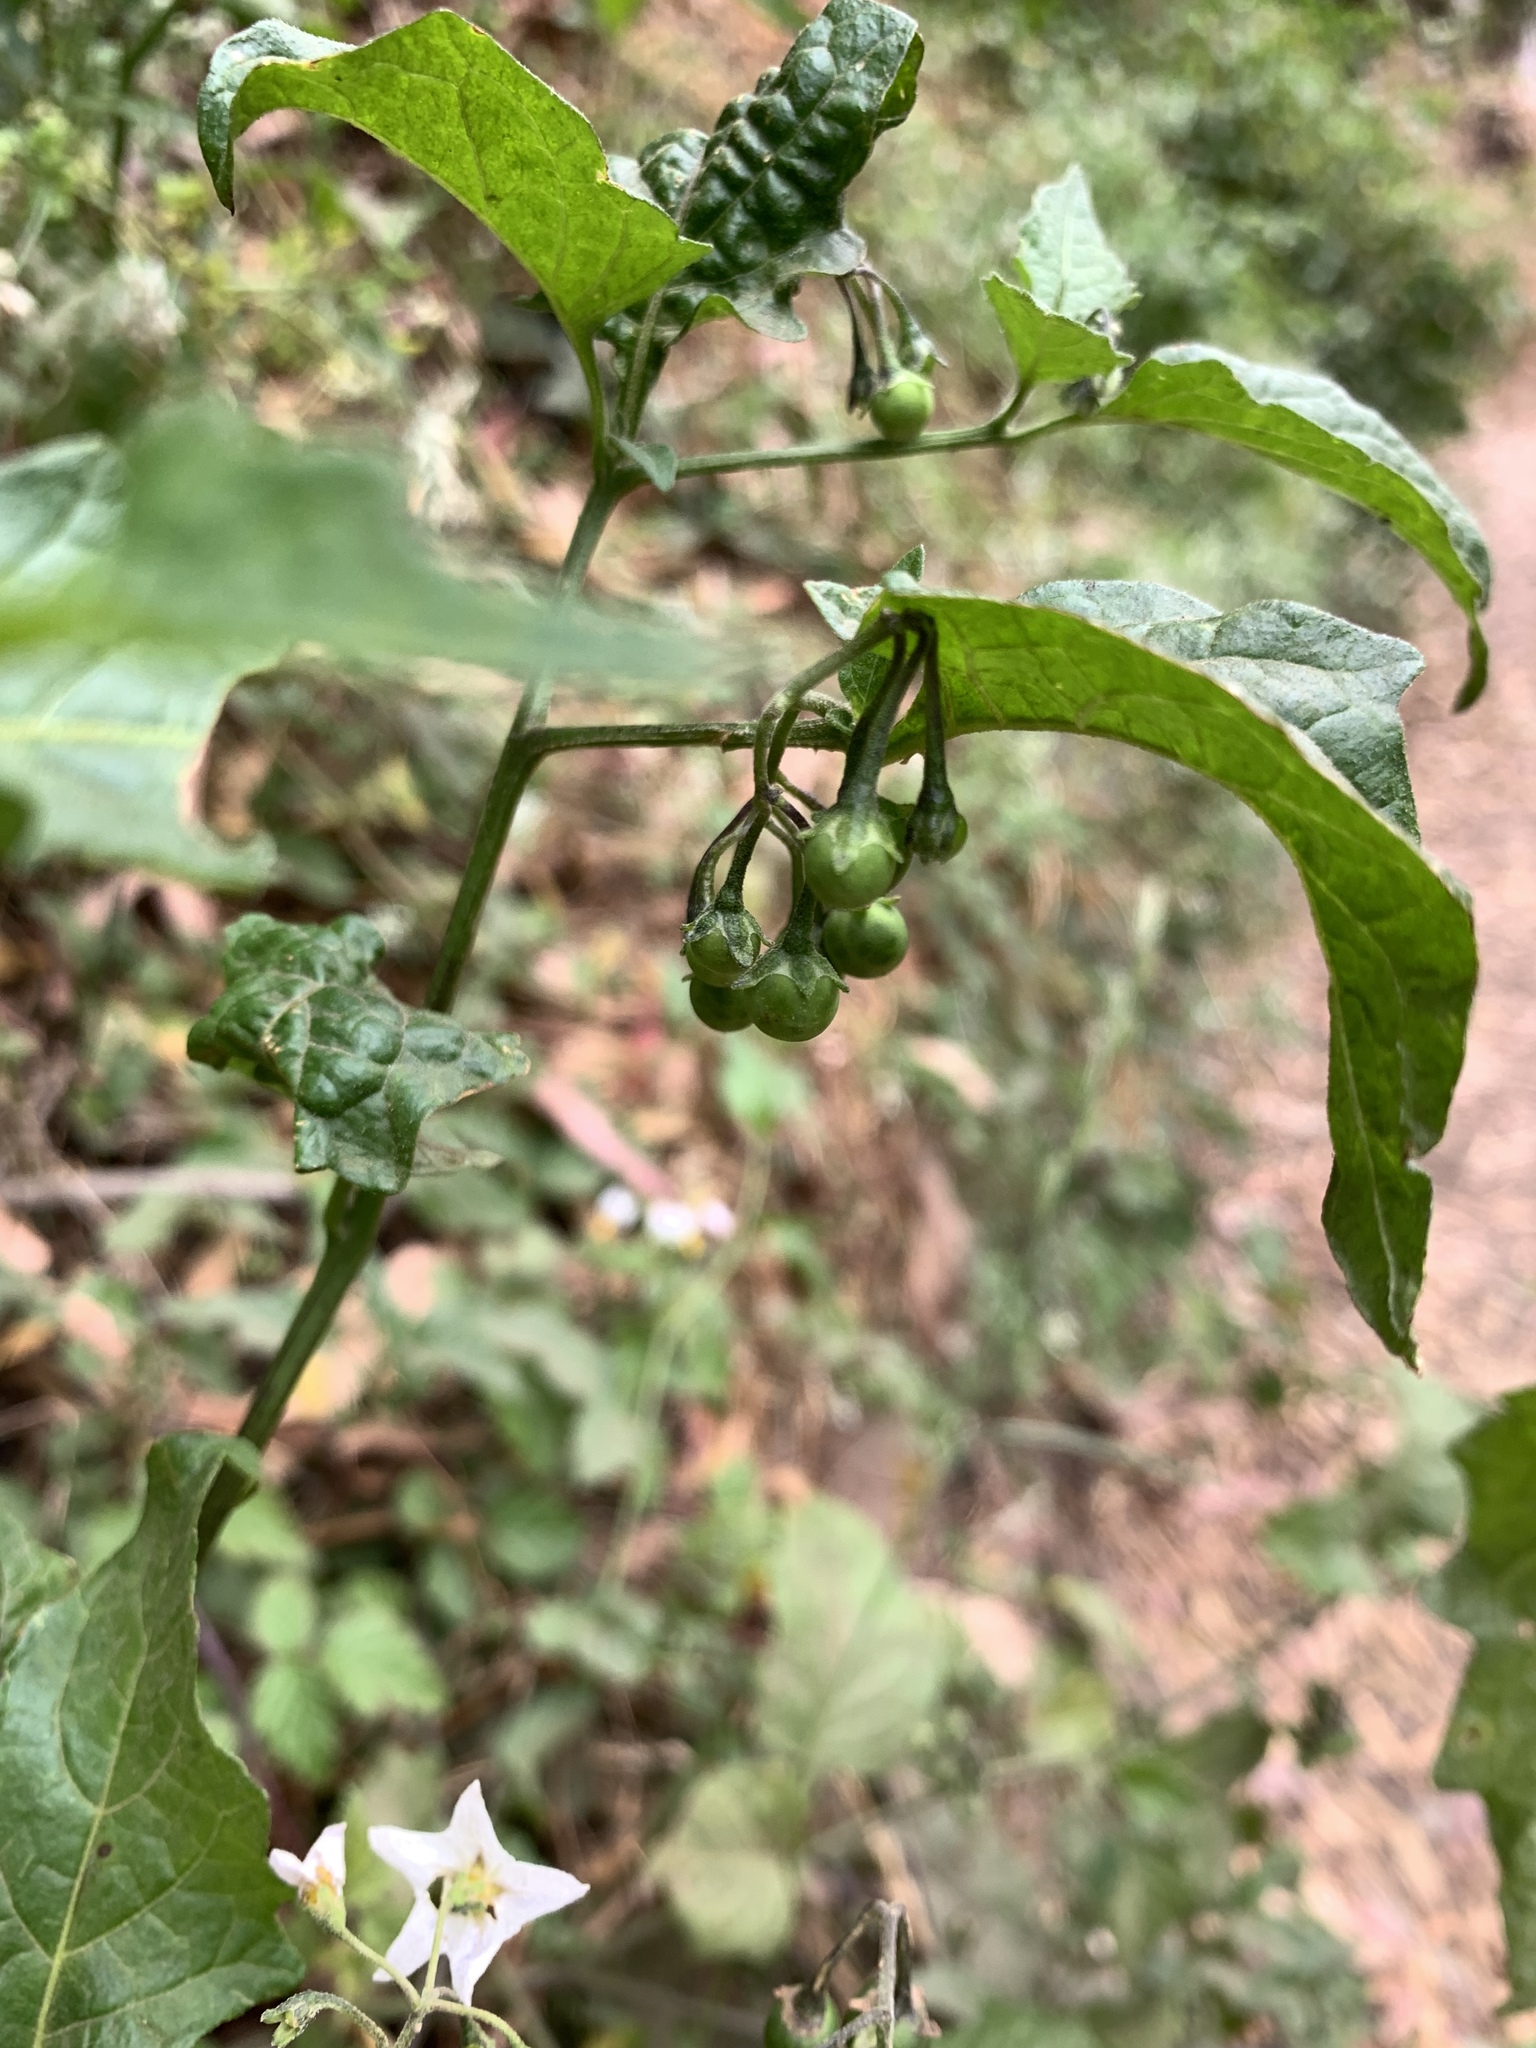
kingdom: Plantae
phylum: Tracheophyta
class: Magnoliopsida
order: Solanales
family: Solanaceae
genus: Solanum
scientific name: Solanum furcatum
